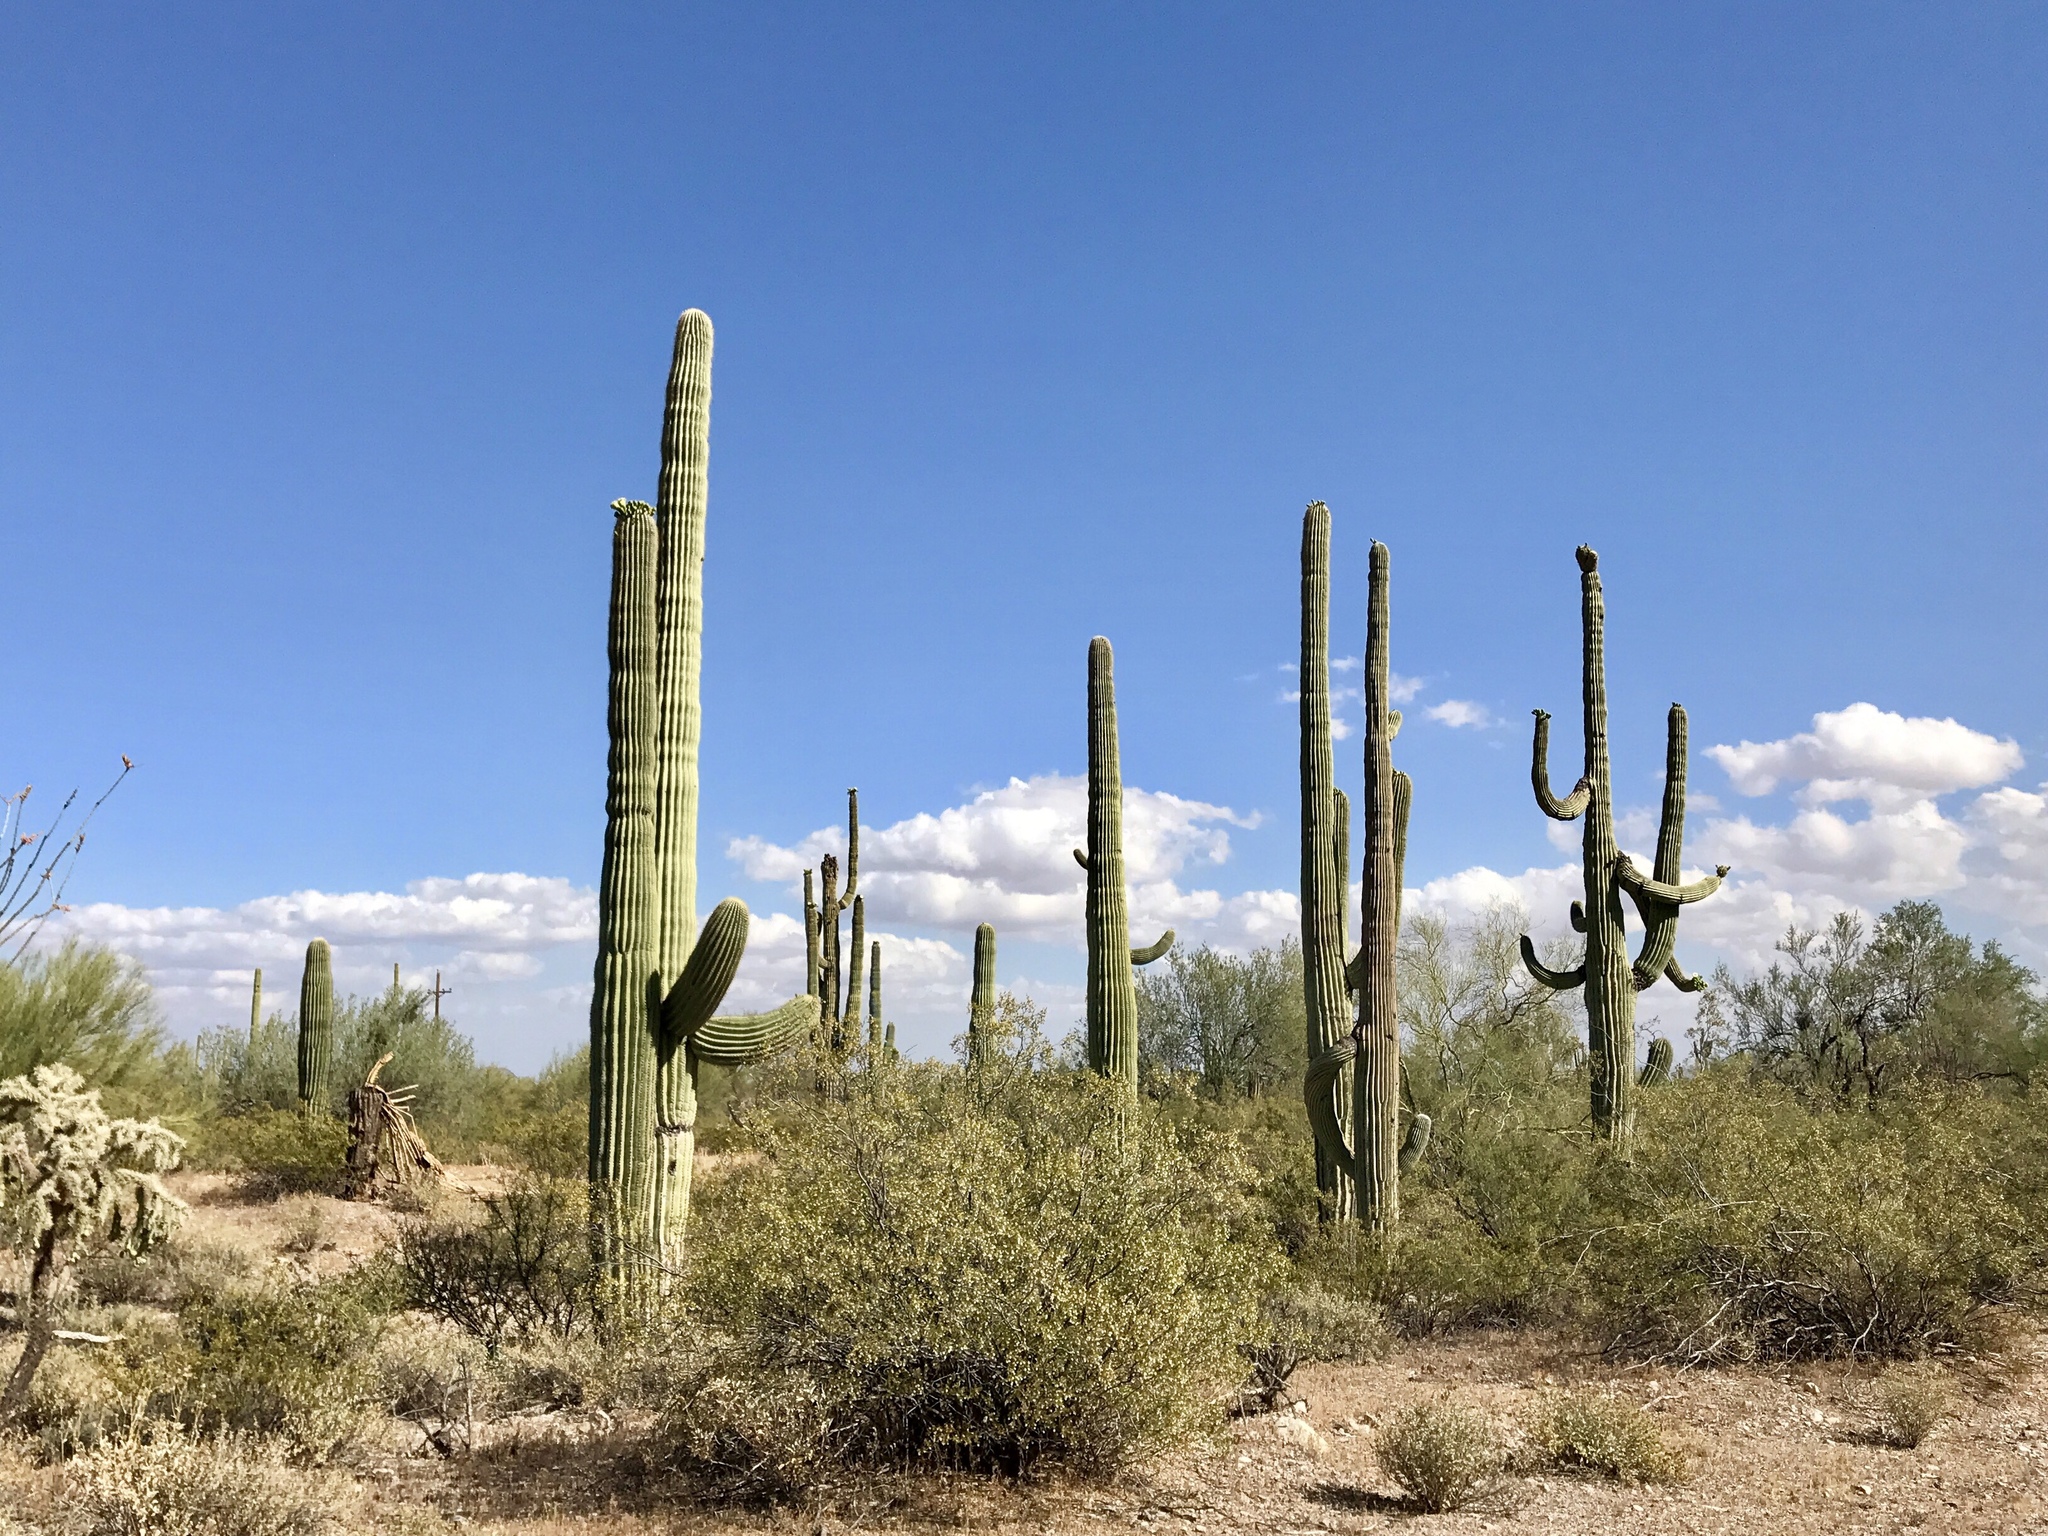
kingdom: Plantae
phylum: Tracheophyta
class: Magnoliopsida
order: Caryophyllales
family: Cactaceae
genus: Carnegiea
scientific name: Carnegiea gigantea
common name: Saguaro
